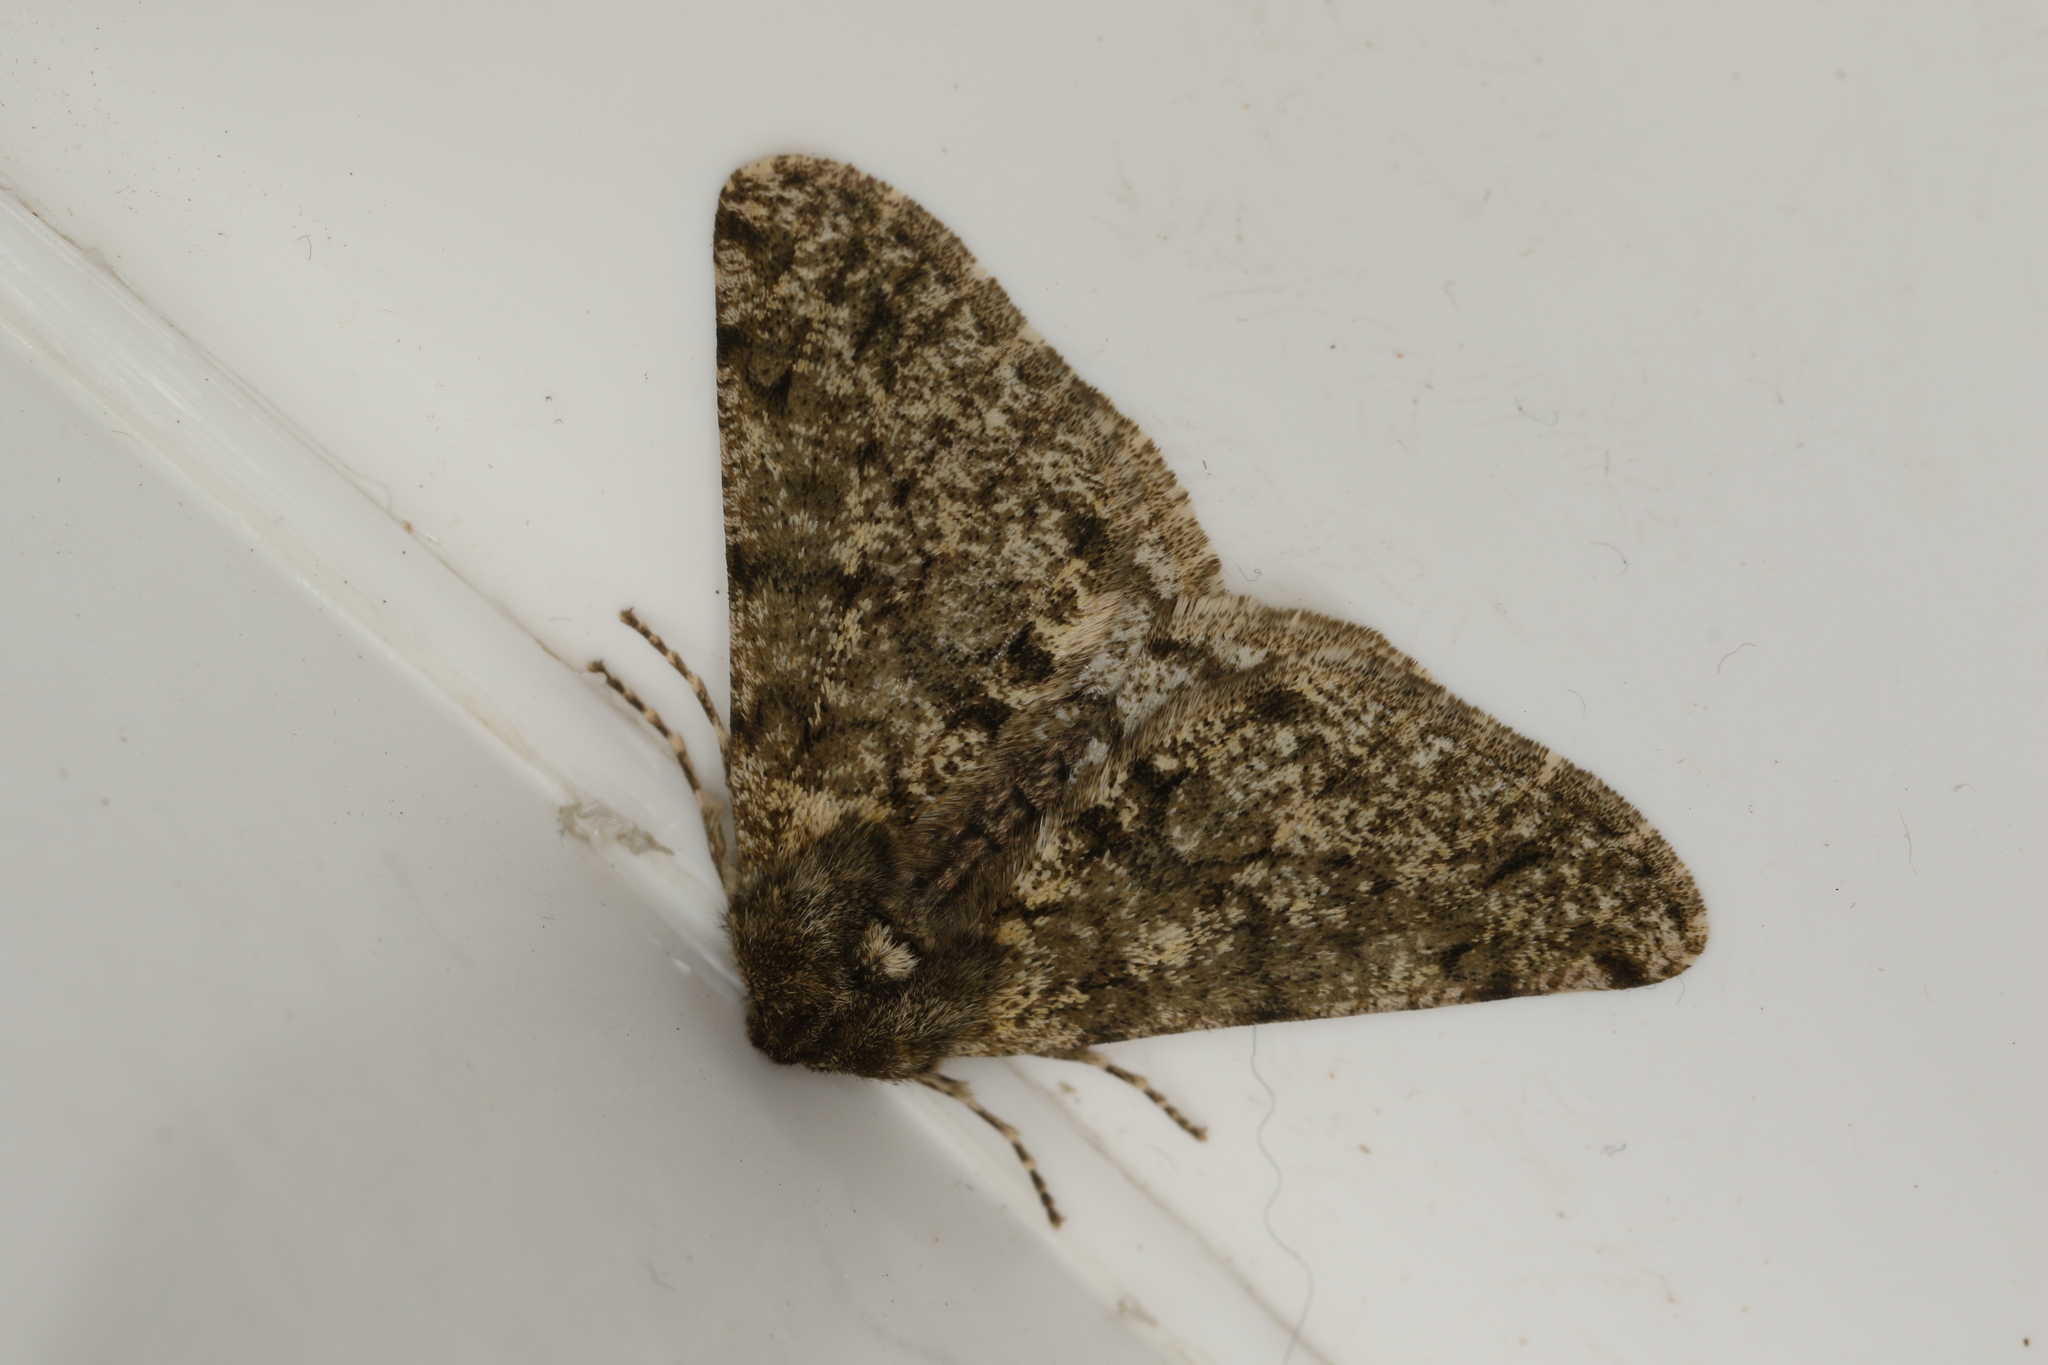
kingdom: Animalia
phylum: Arthropoda
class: Insecta
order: Lepidoptera
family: Geometridae
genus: Phigalia
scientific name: Phigalia pilosaria
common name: Pale brindled beauty
